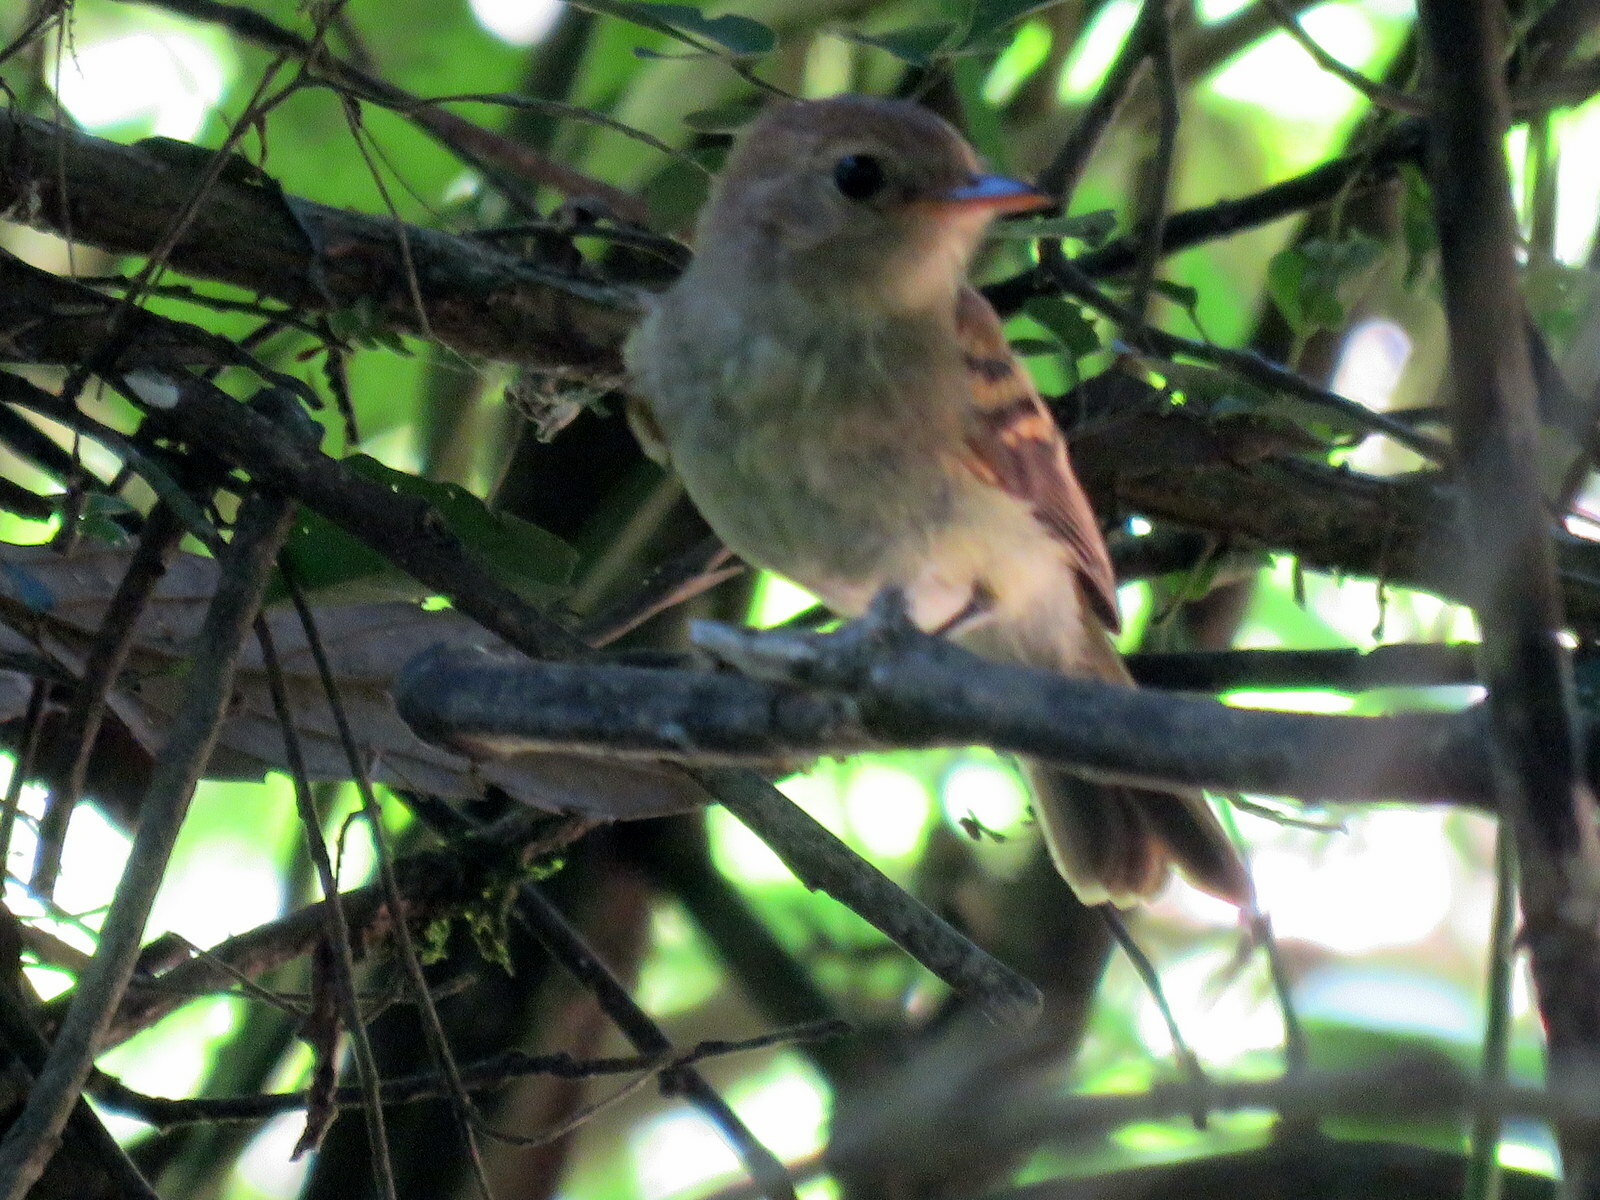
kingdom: Animalia
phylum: Chordata
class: Aves
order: Passeriformes
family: Tyrannidae
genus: Lathrotriccus
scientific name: Lathrotriccus euleri
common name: Euler's flycatcher
